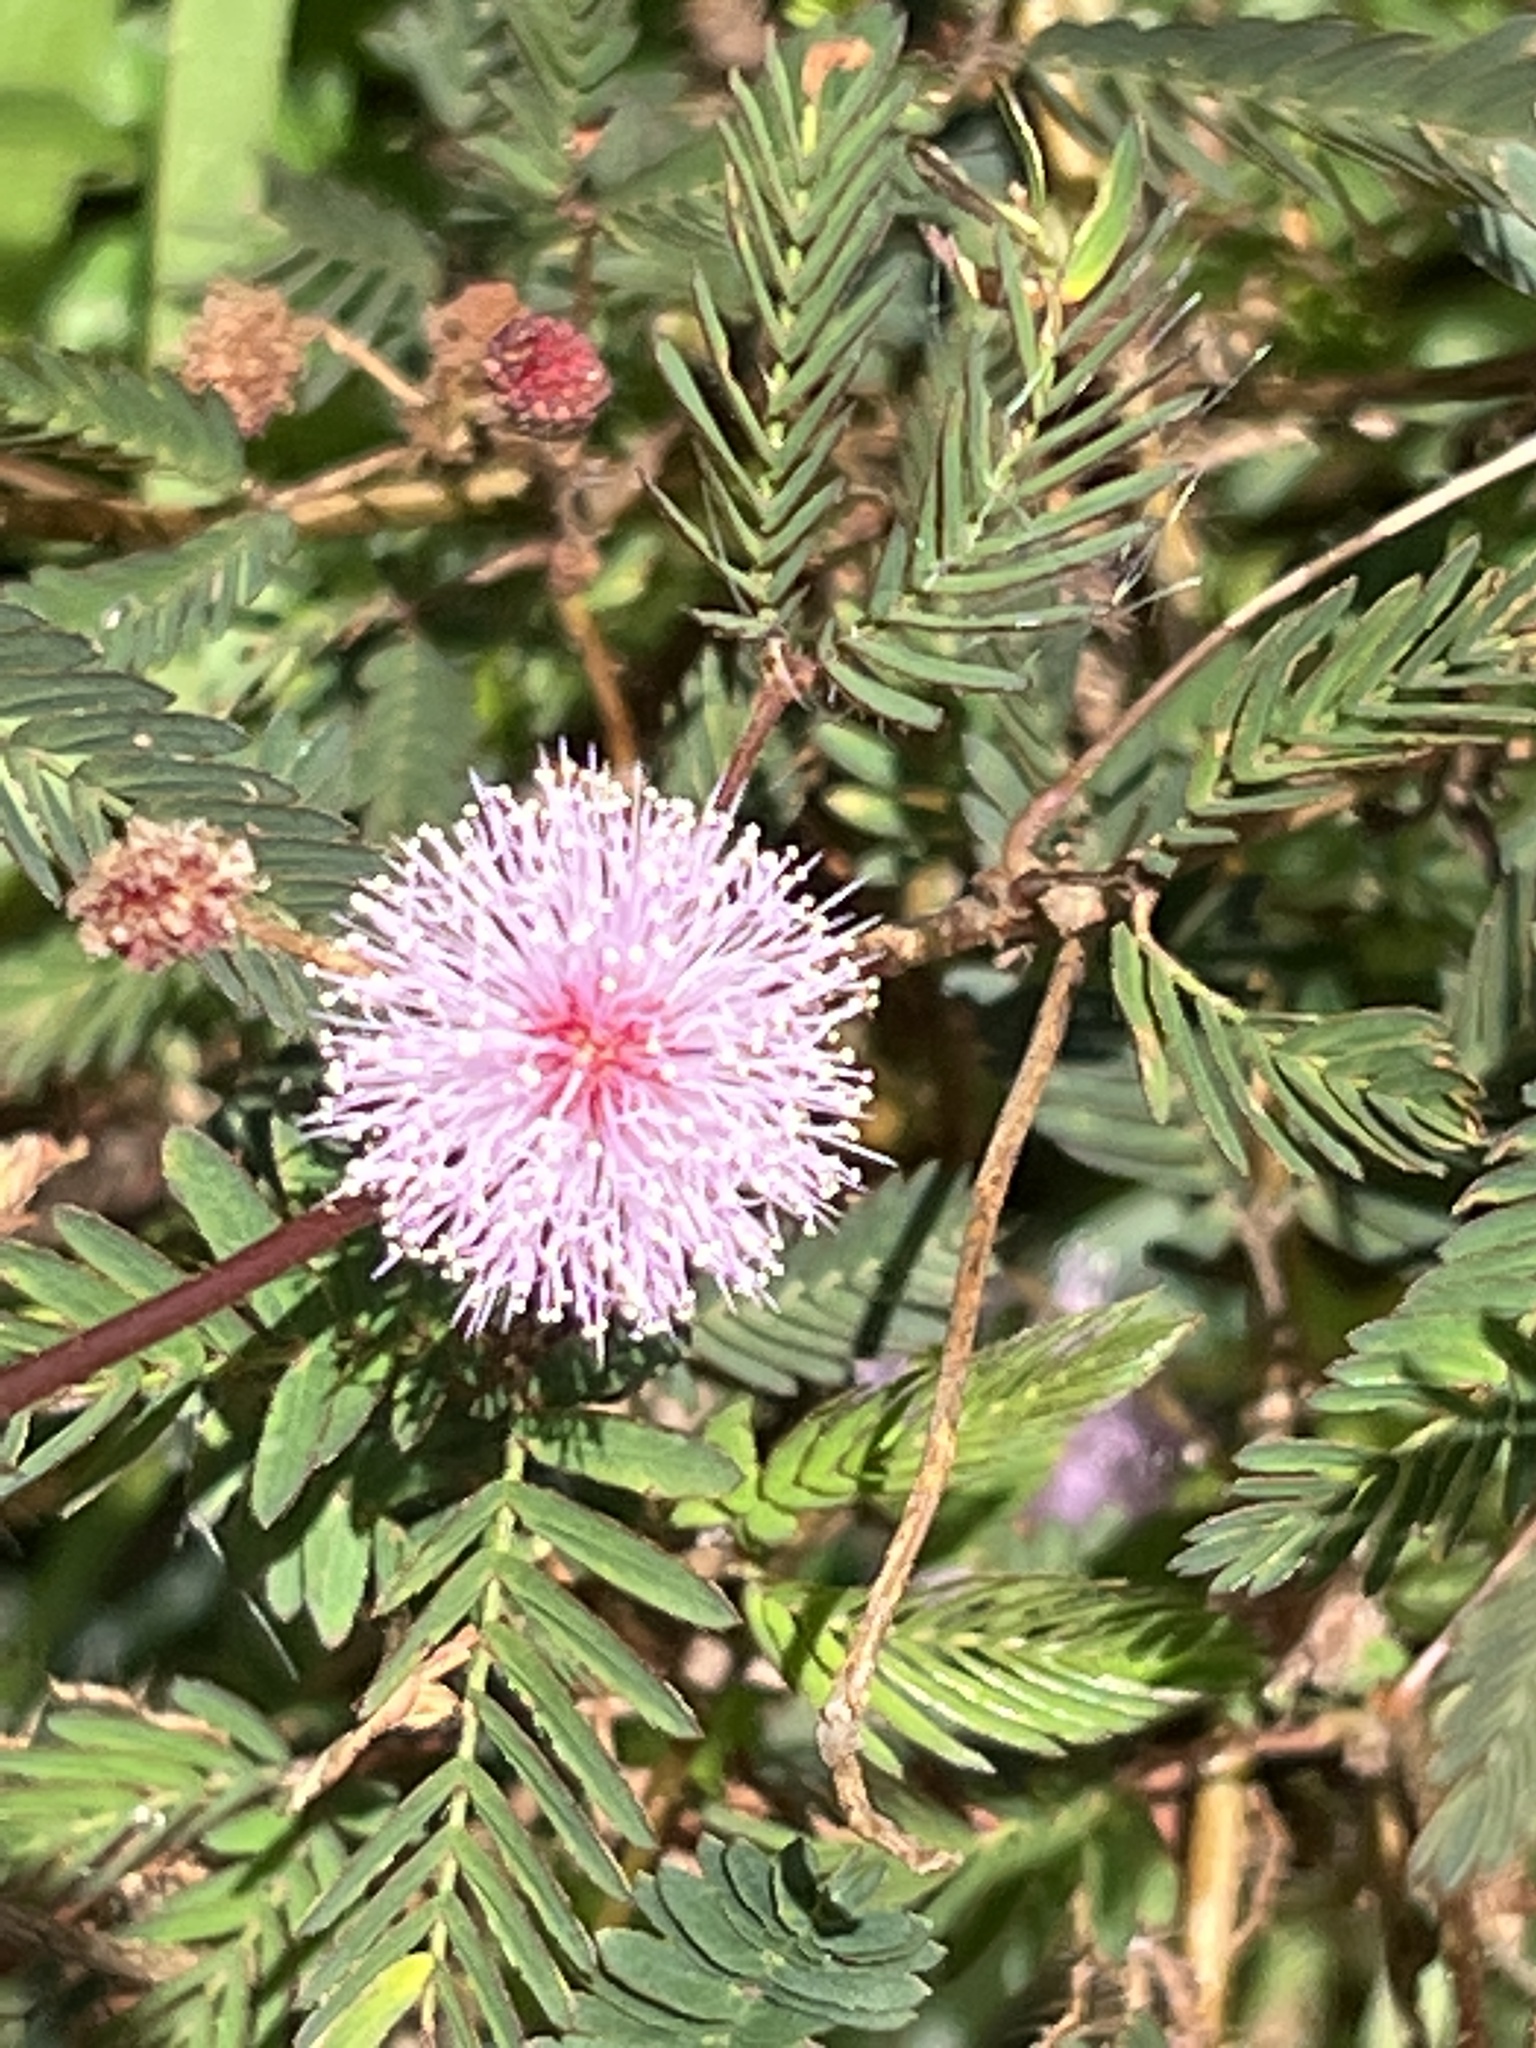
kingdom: Plantae
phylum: Tracheophyta
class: Magnoliopsida
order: Fabales
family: Fabaceae
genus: Mimosa
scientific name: Mimosa pudica
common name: Sensitive plant
